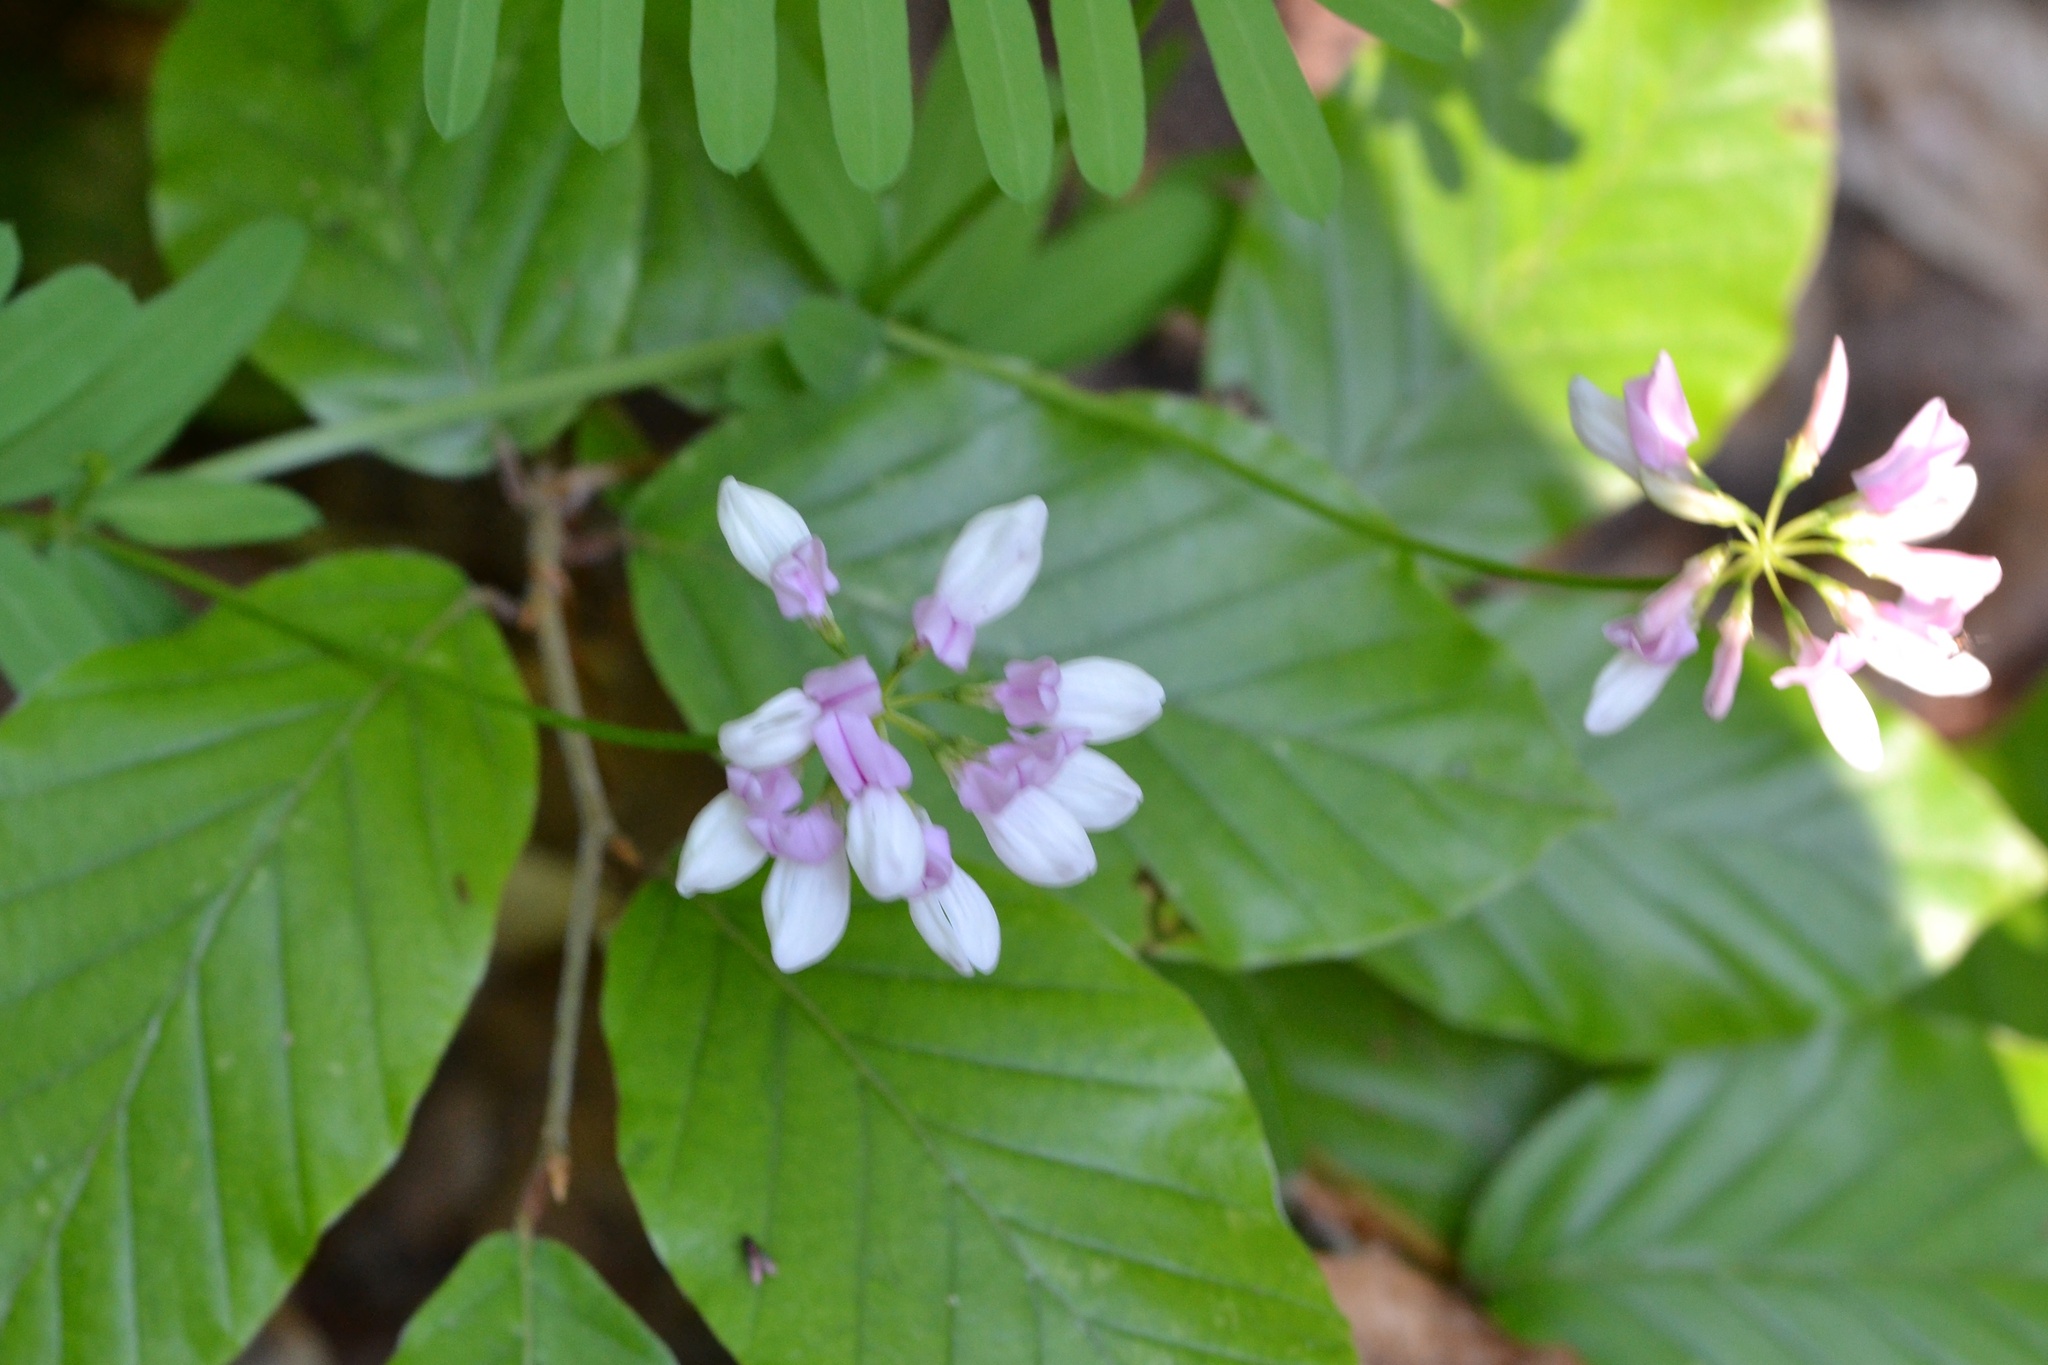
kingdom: Plantae
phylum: Tracheophyta
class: Magnoliopsida
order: Fabales
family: Fabaceae
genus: Coronilla
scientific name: Coronilla varia
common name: Crownvetch
